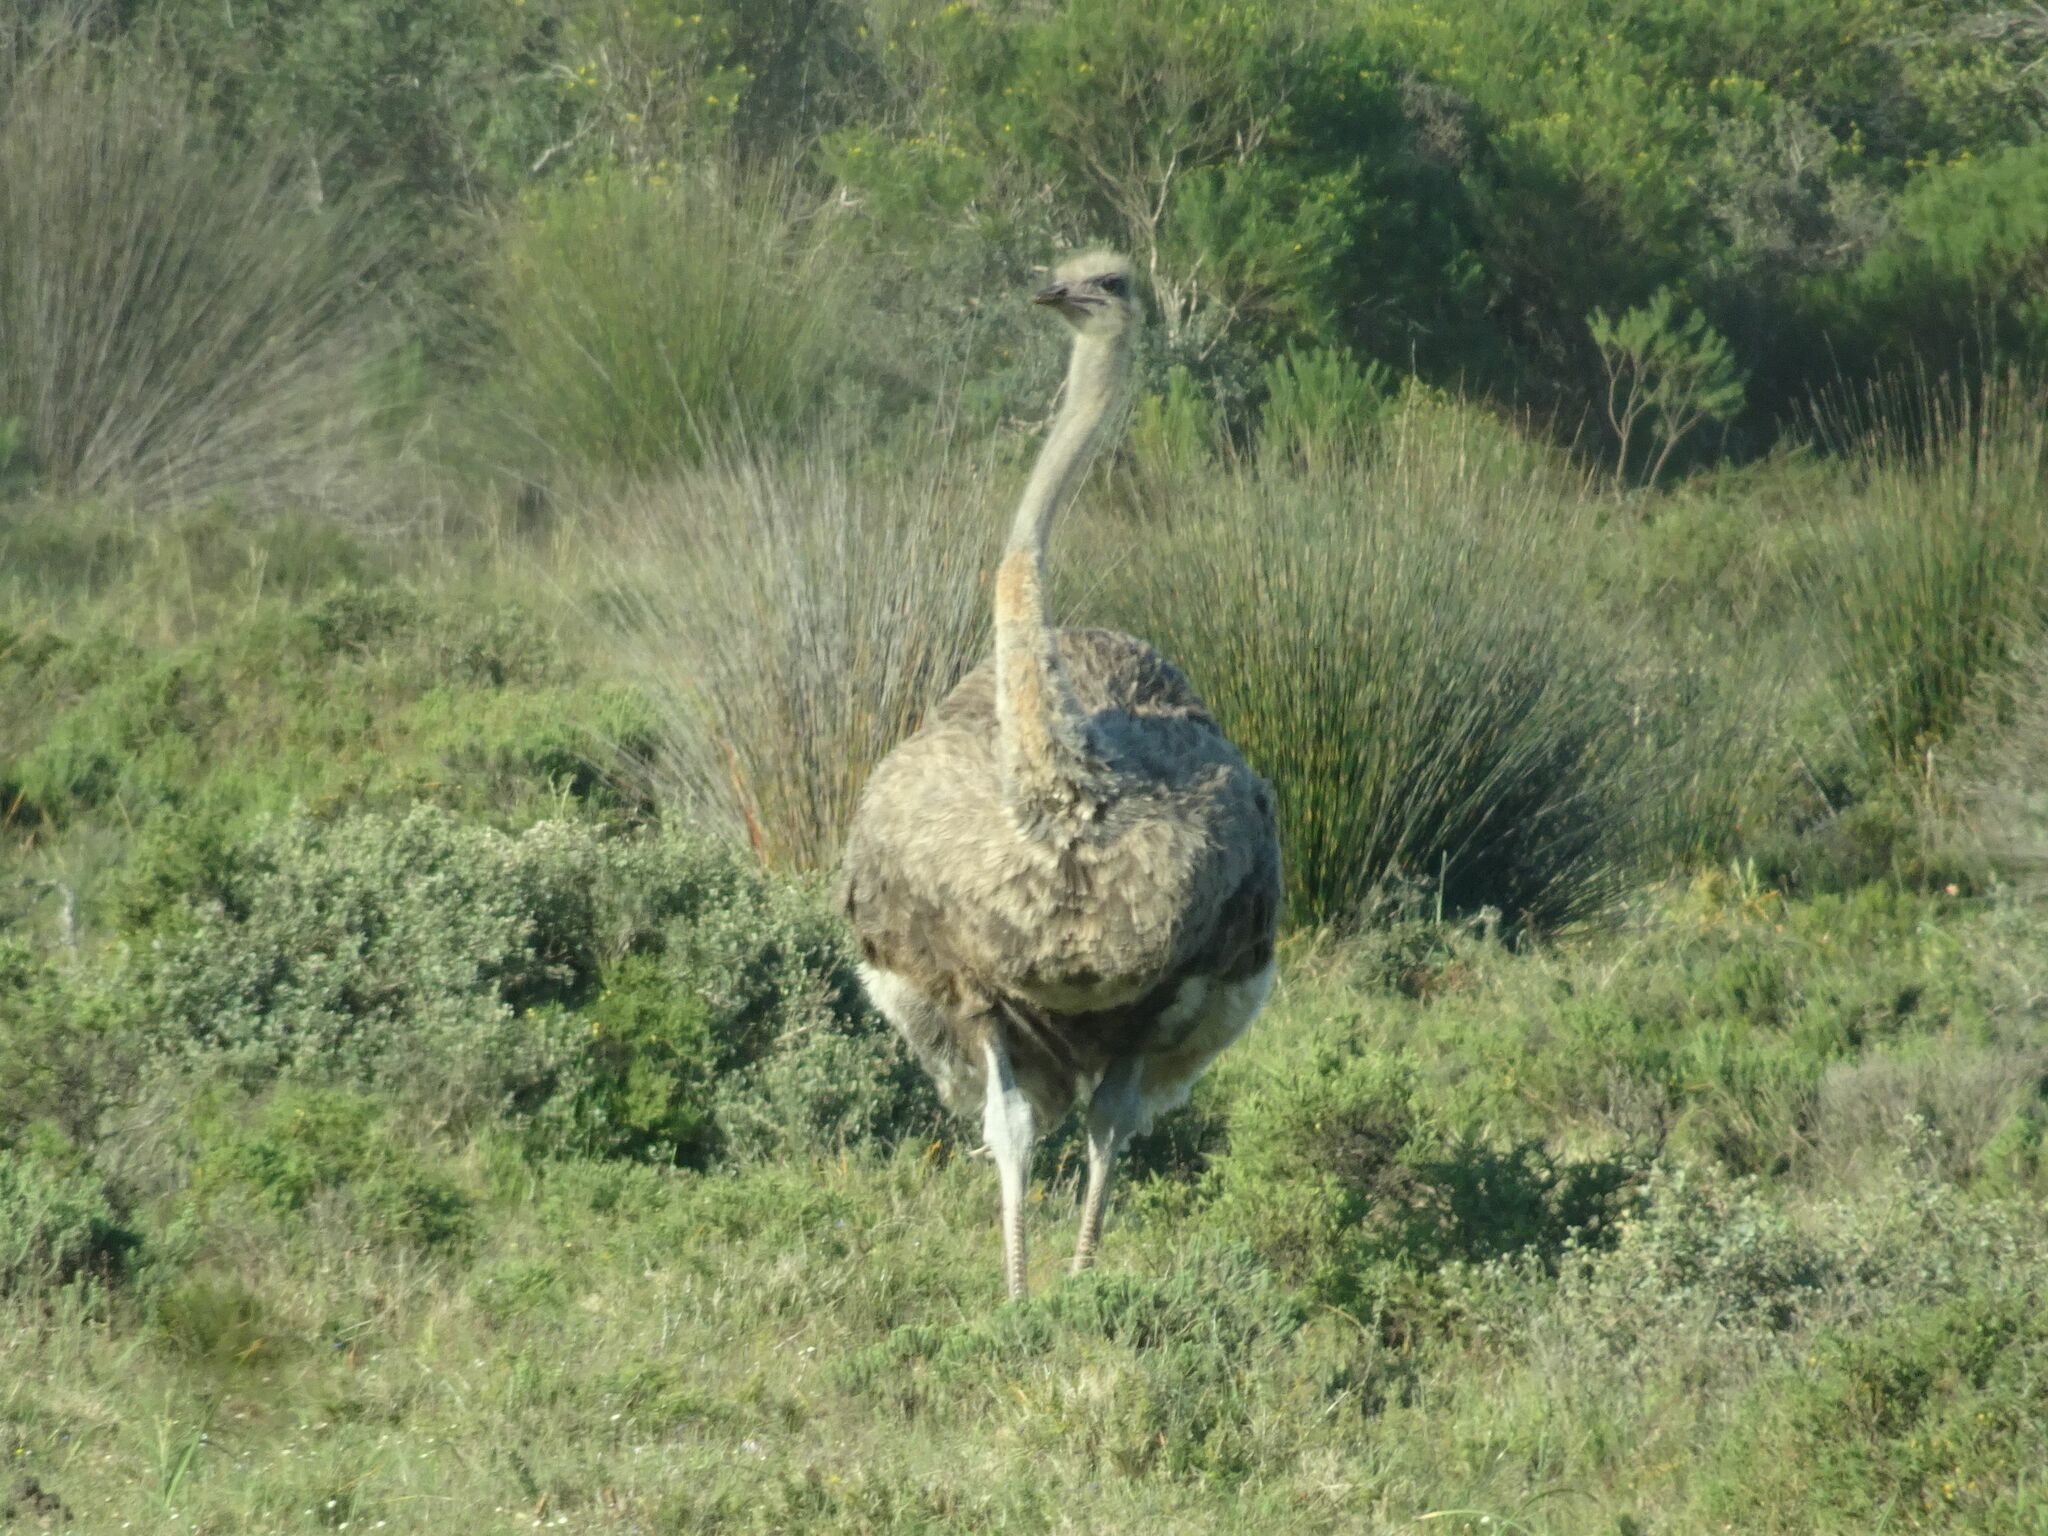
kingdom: Animalia
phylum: Chordata
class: Aves
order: Struthioniformes
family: Struthionidae
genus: Struthio
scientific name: Struthio camelus
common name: Common ostrich
